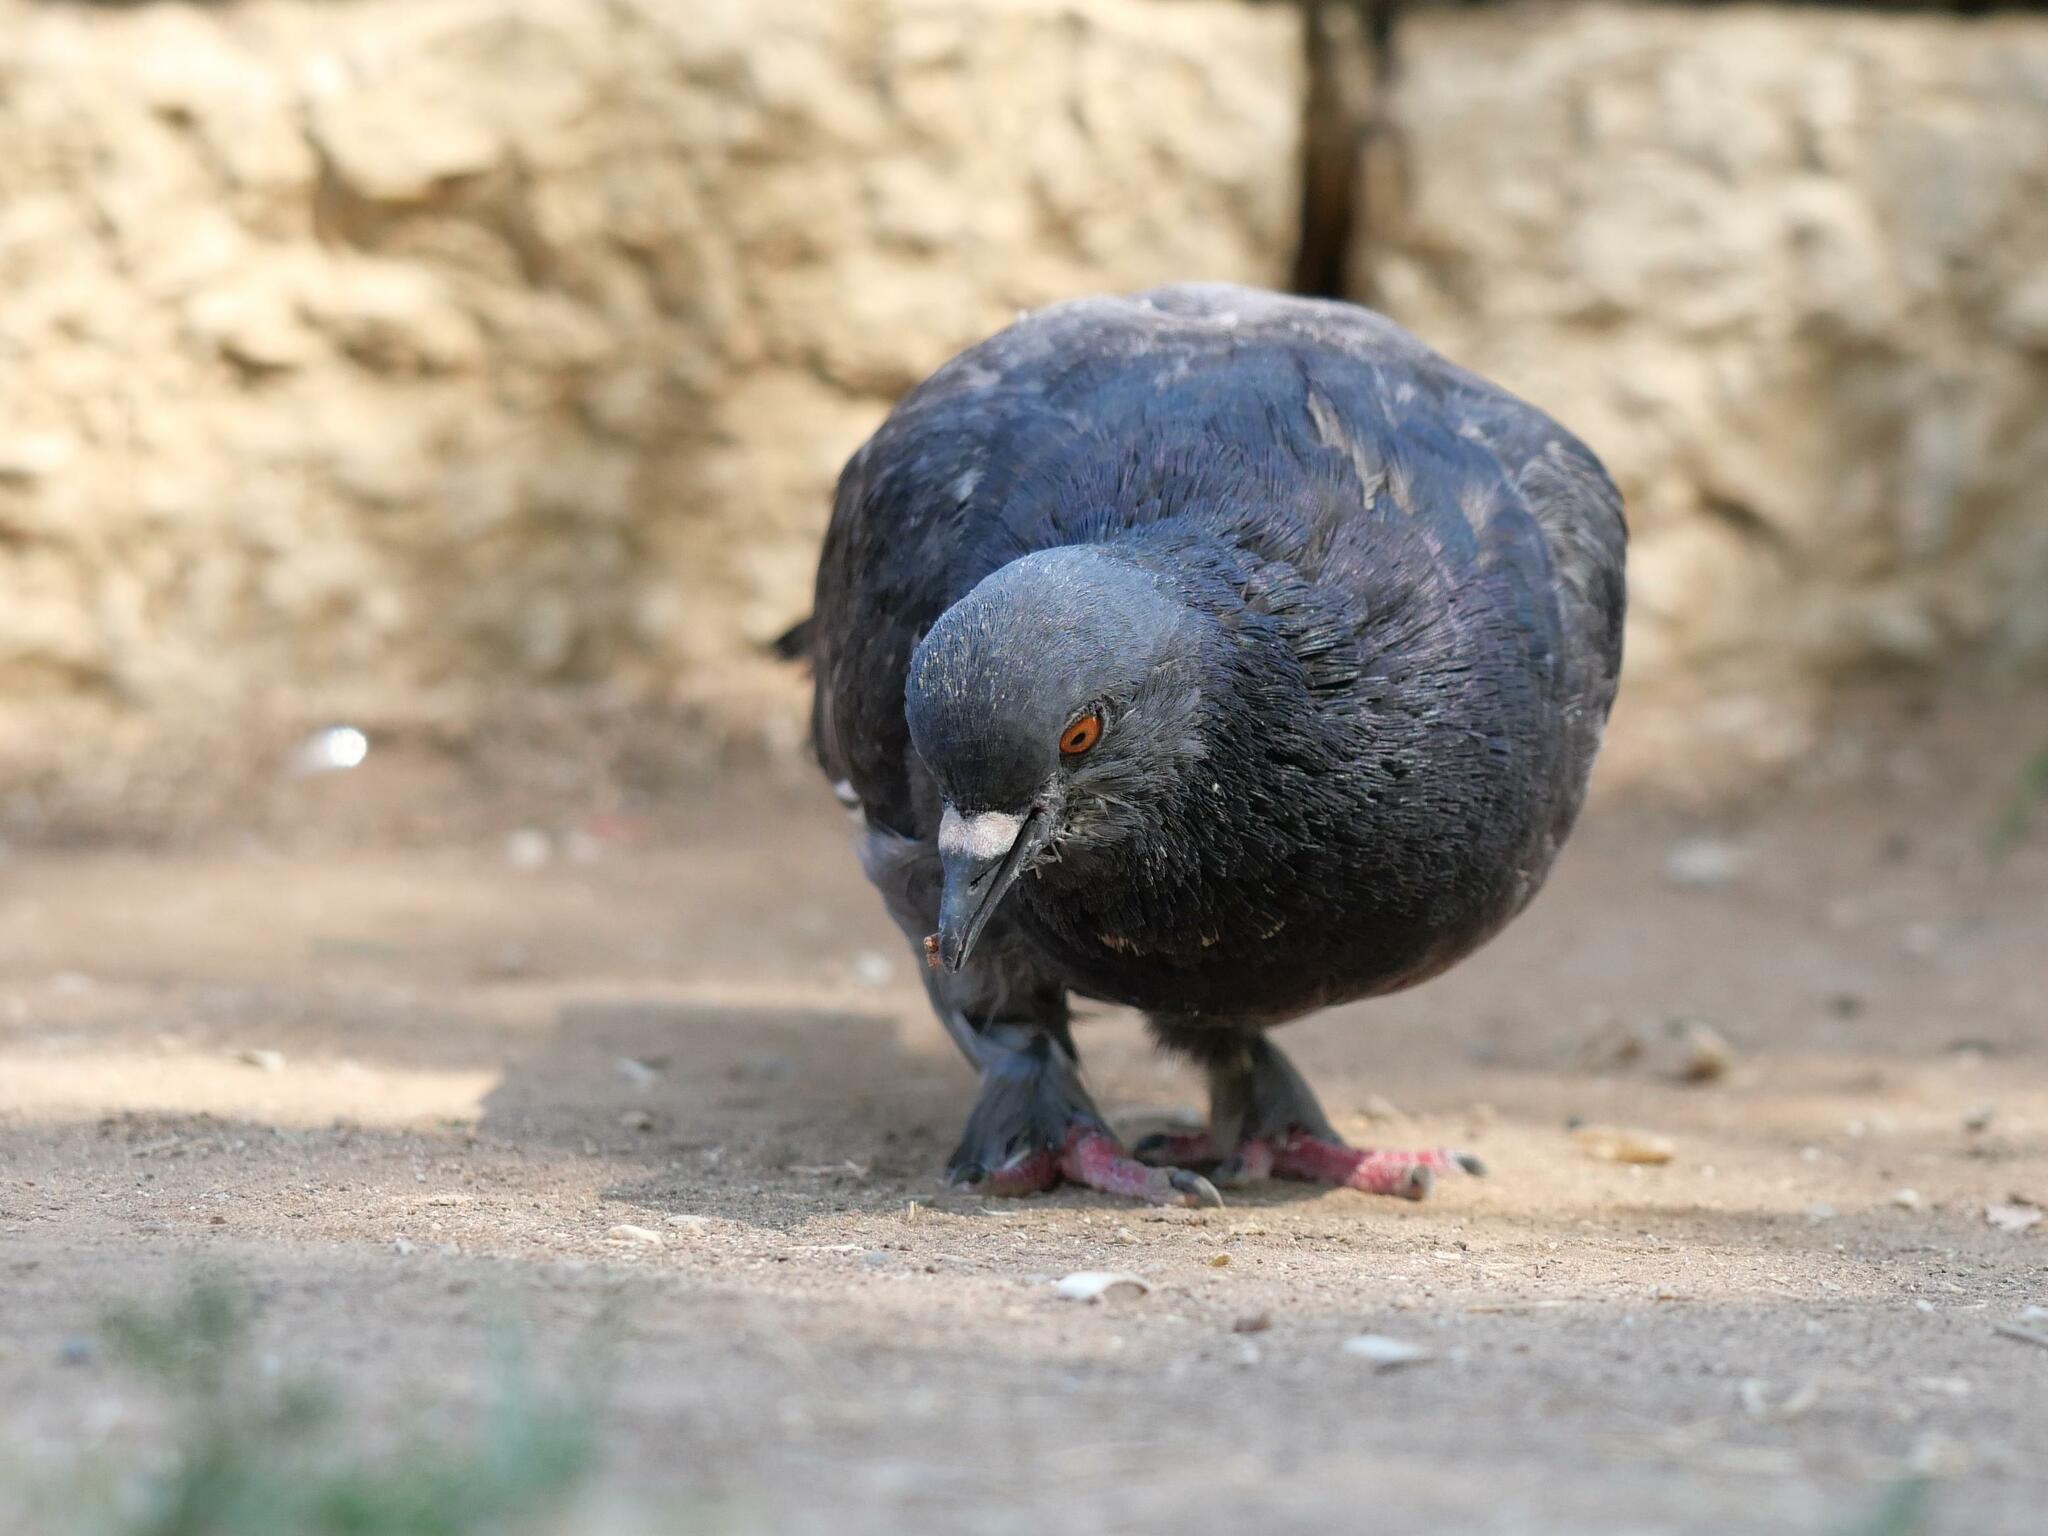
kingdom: Animalia
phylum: Chordata
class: Aves
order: Columbiformes
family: Columbidae
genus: Columba
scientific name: Columba livia
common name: Rock pigeon
